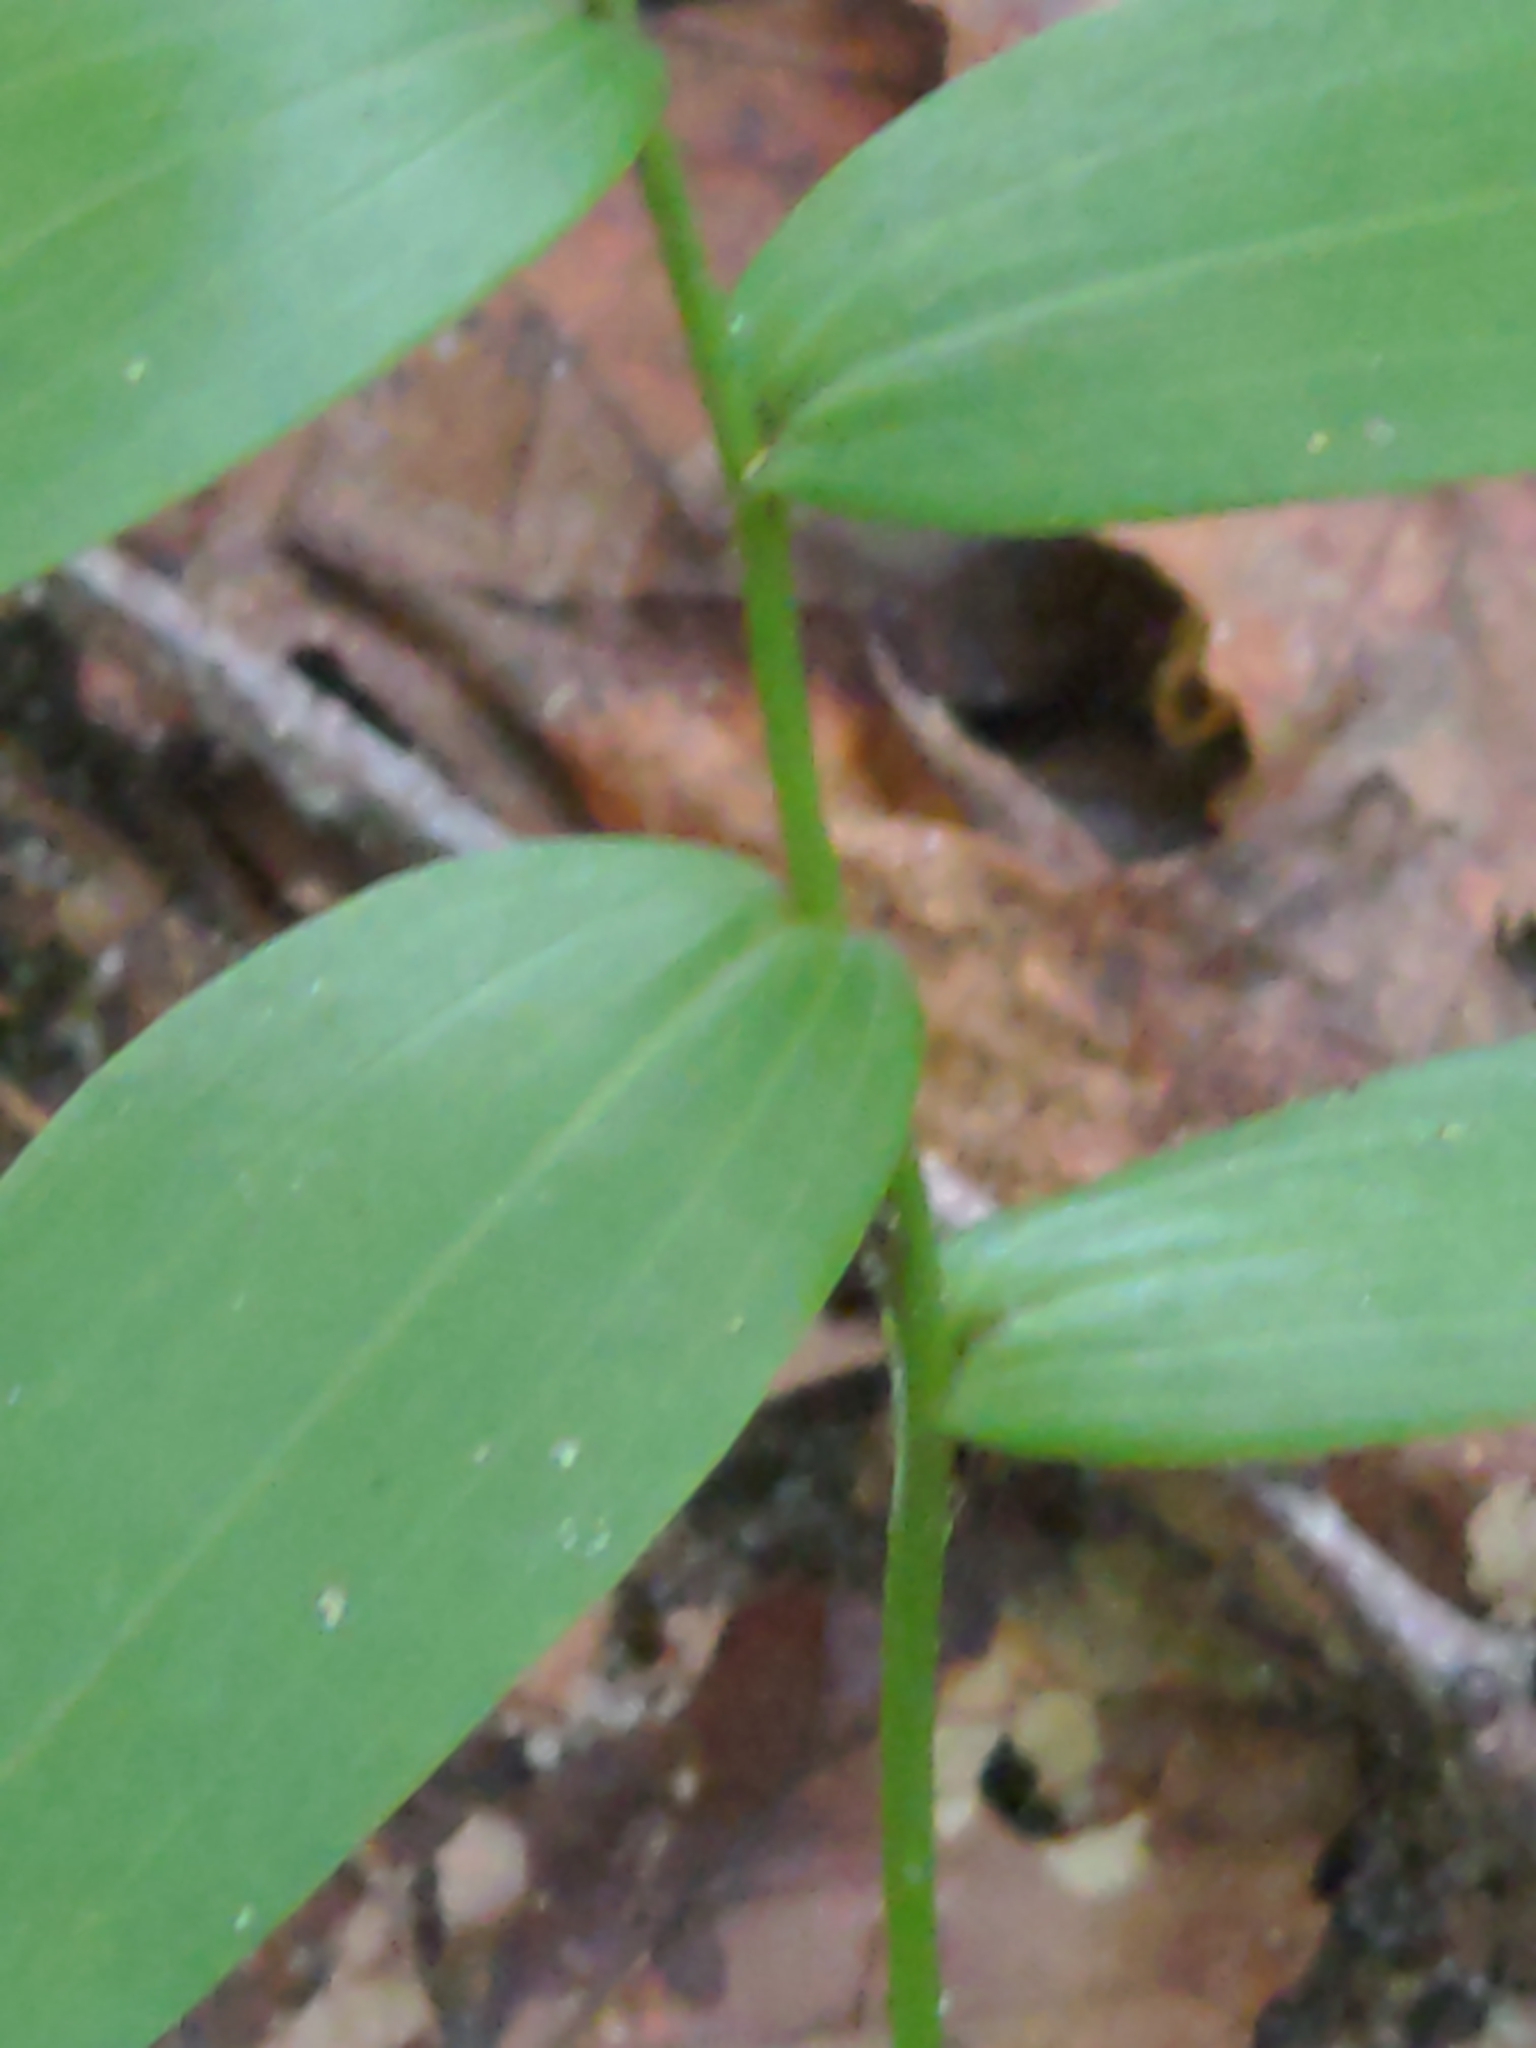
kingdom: Plantae
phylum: Tracheophyta
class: Liliopsida
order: Asparagales
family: Asparagaceae
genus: Polygonatum
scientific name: Polygonatum biflorum
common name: American solomon's-seal
